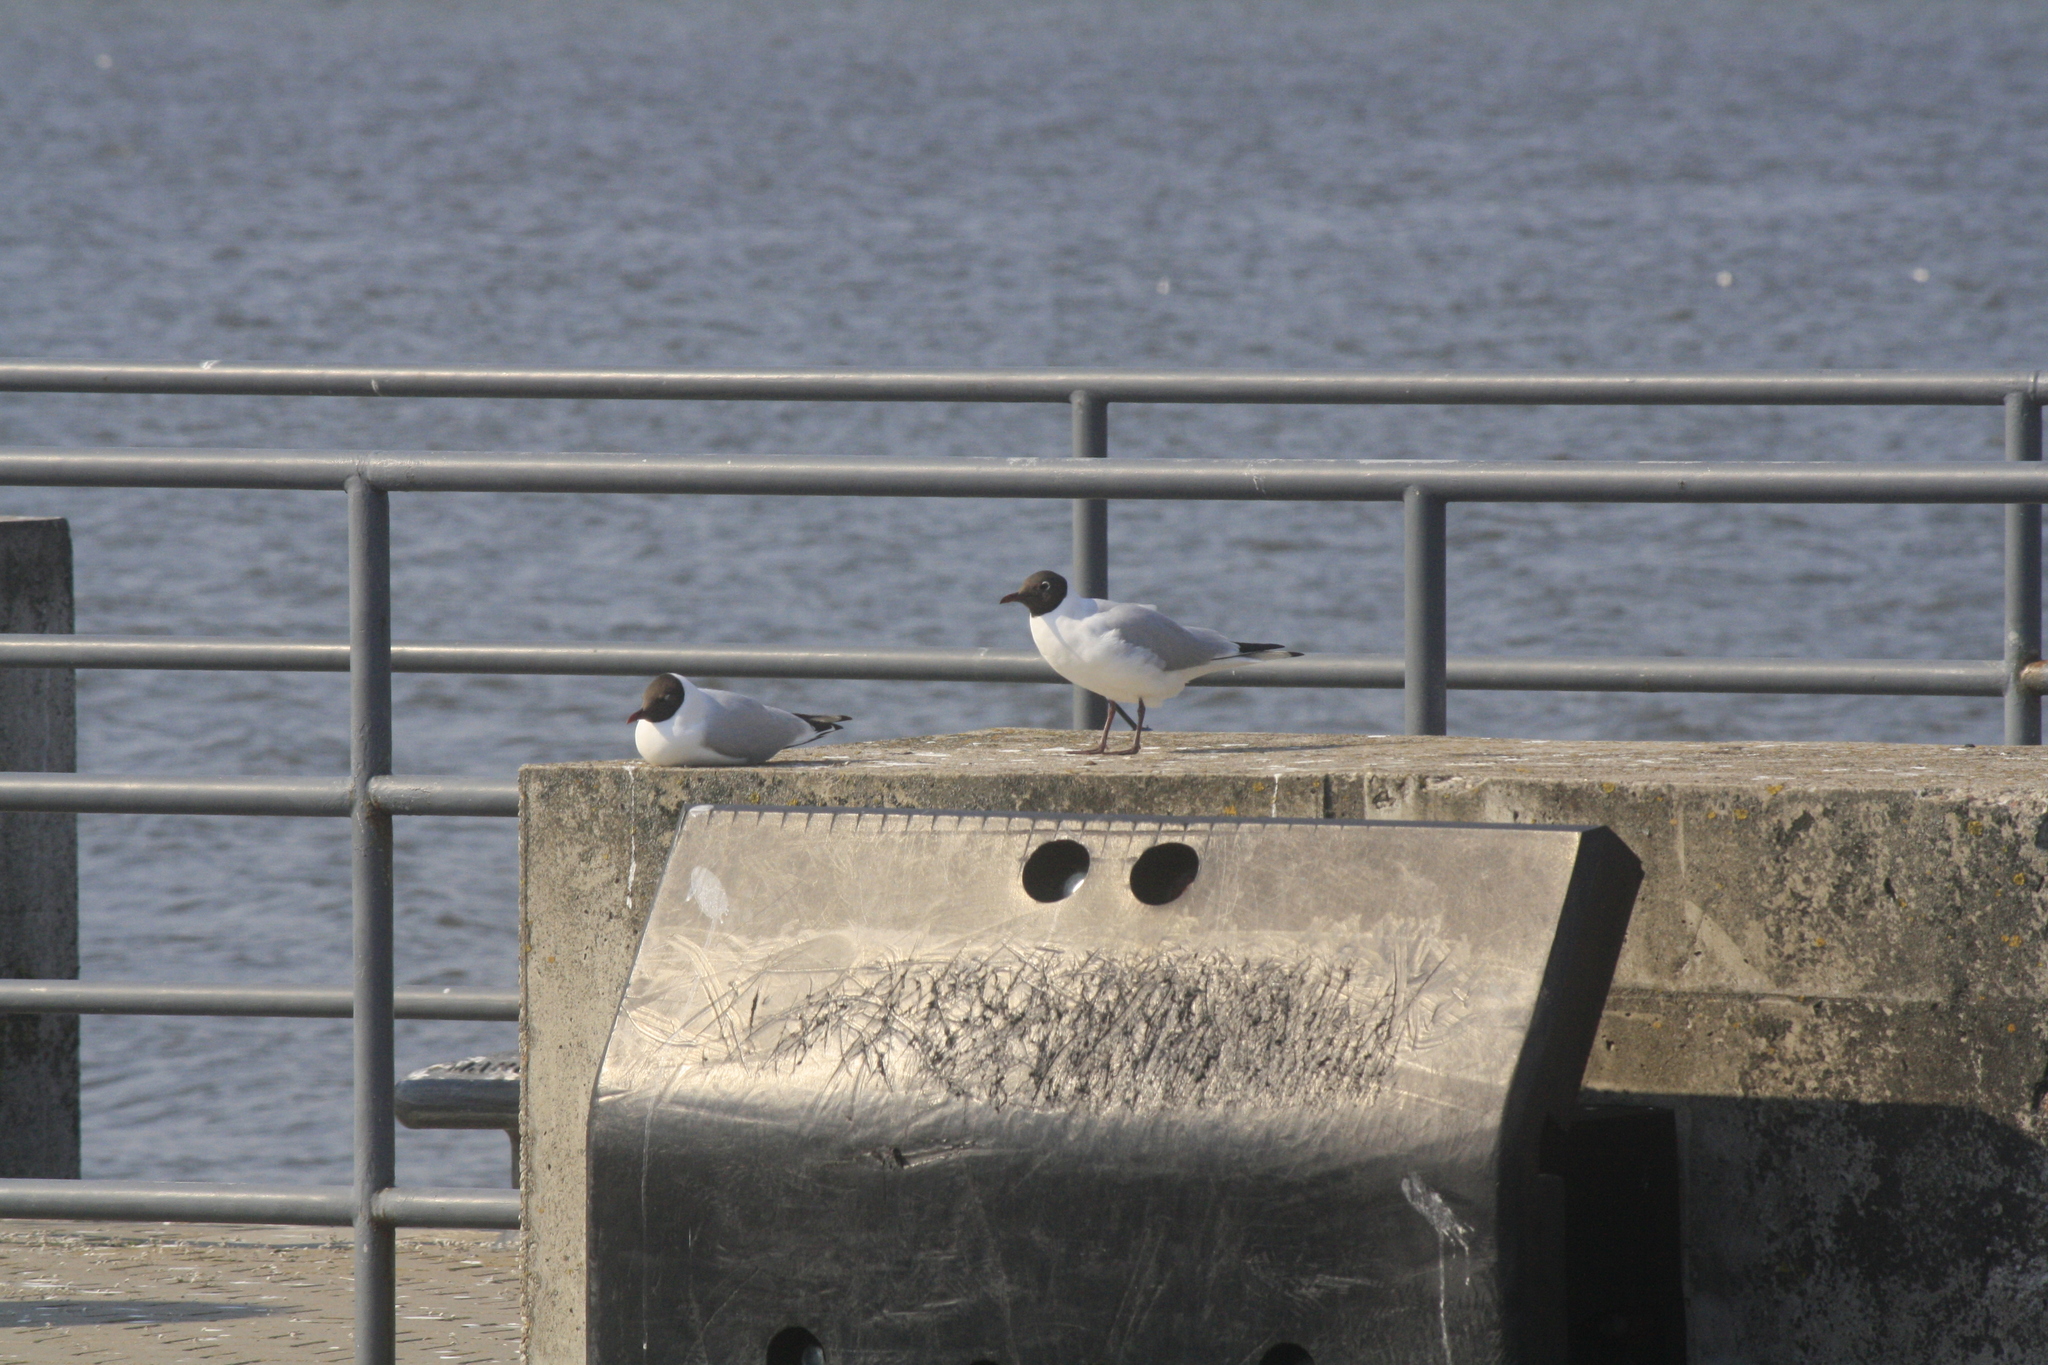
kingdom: Animalia
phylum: Chordata
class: Aves
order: Charadriiformes
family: Laridae
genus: Chroicocephalus
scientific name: Chroicocephalus ridibundus
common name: Black-headed gull
